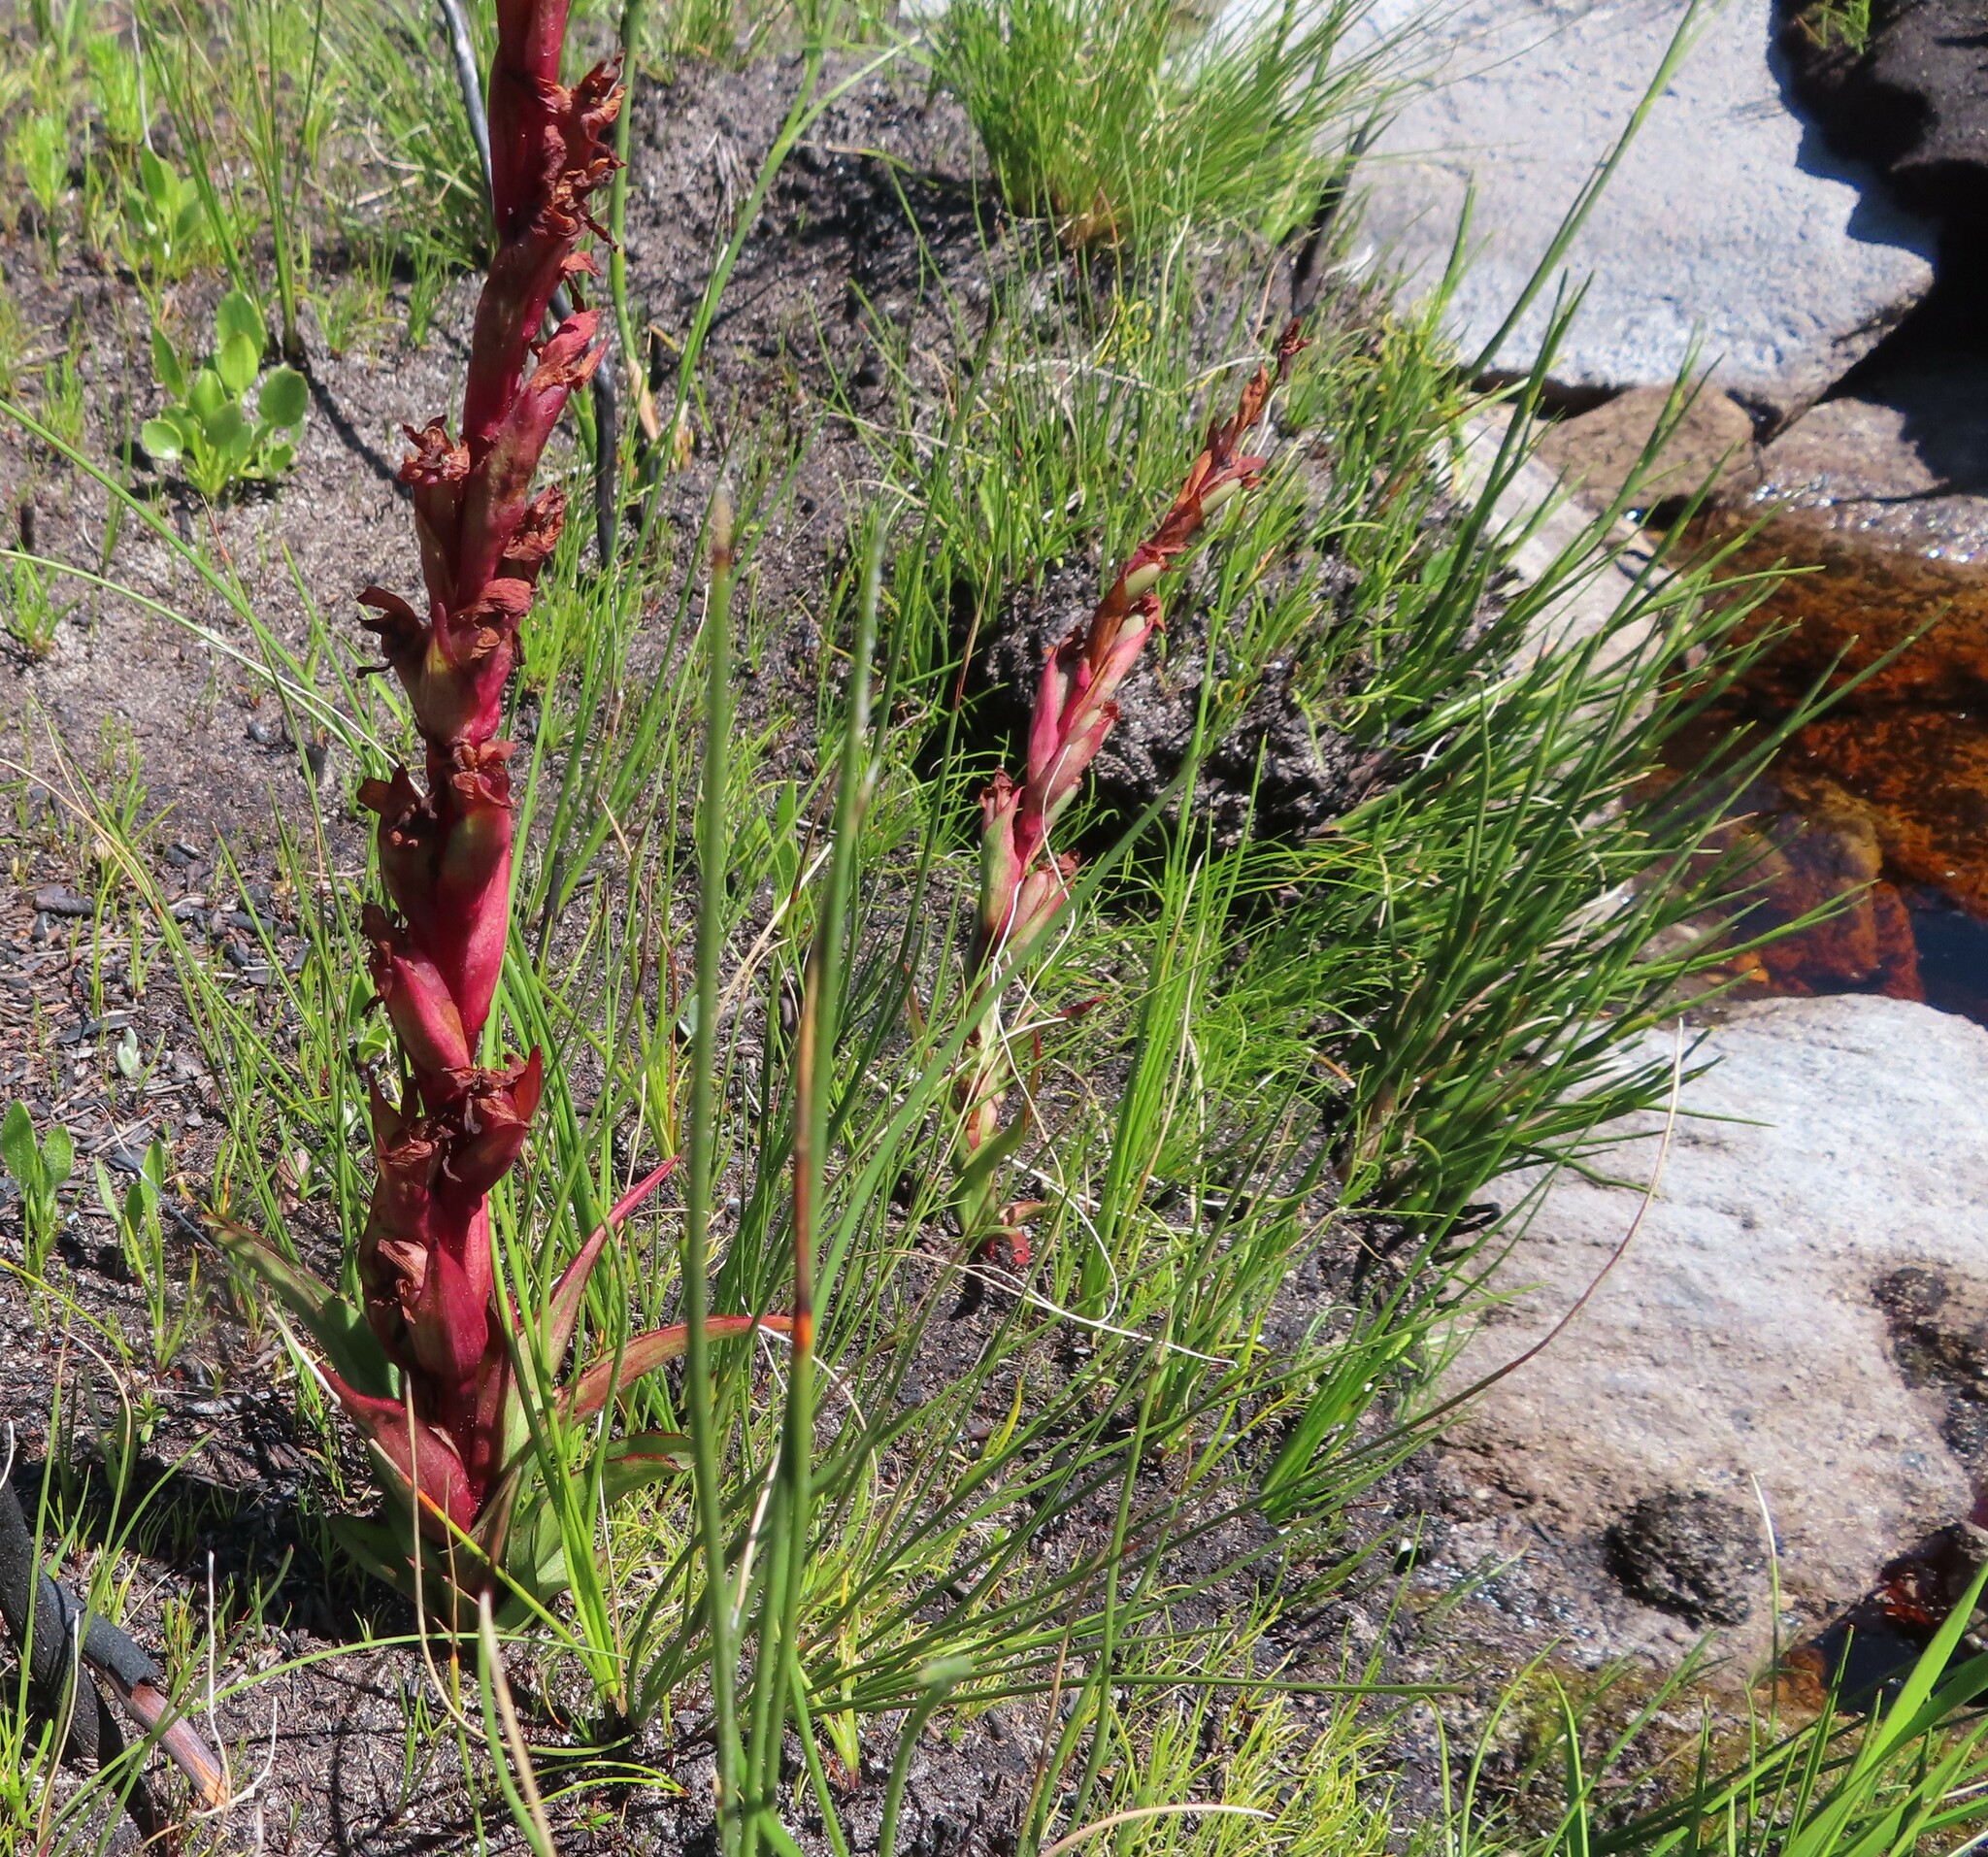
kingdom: Plantae
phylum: Tracheophyta
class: Liliopsida
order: Asparagales
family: Orchidaceae
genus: Disa
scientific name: Disa ophrydea
